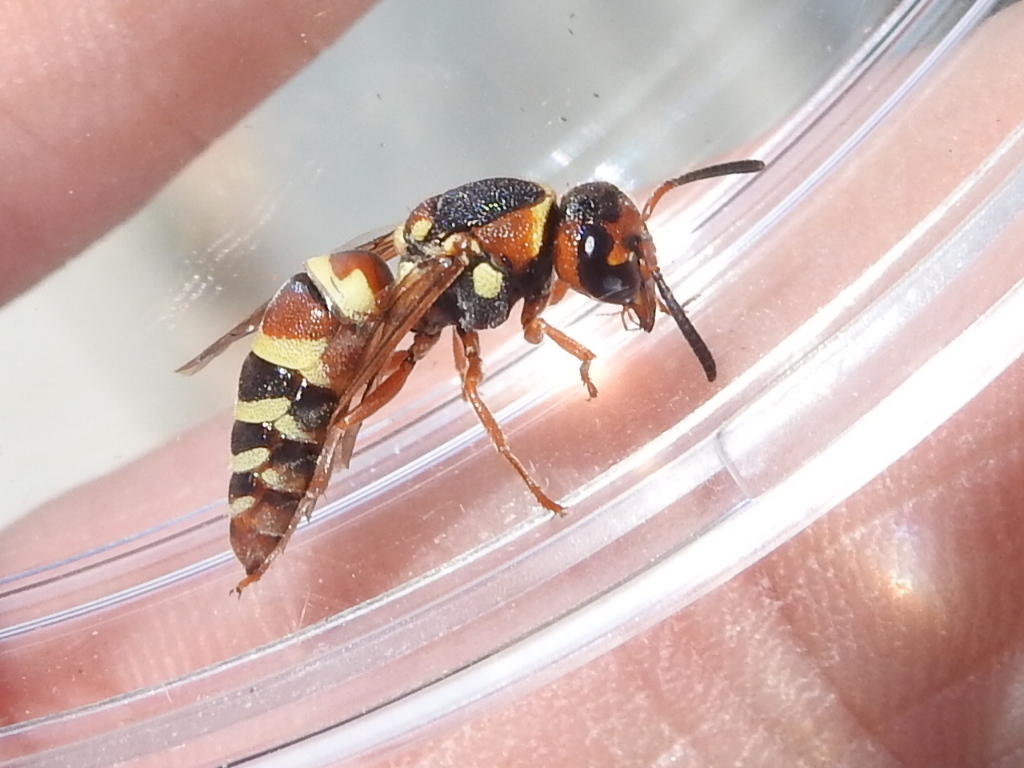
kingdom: Animalia
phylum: Arthropoda
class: Insecta
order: Hymenoptera
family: Eumenidae
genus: Euodynerus
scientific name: Euodynerus annulatus
